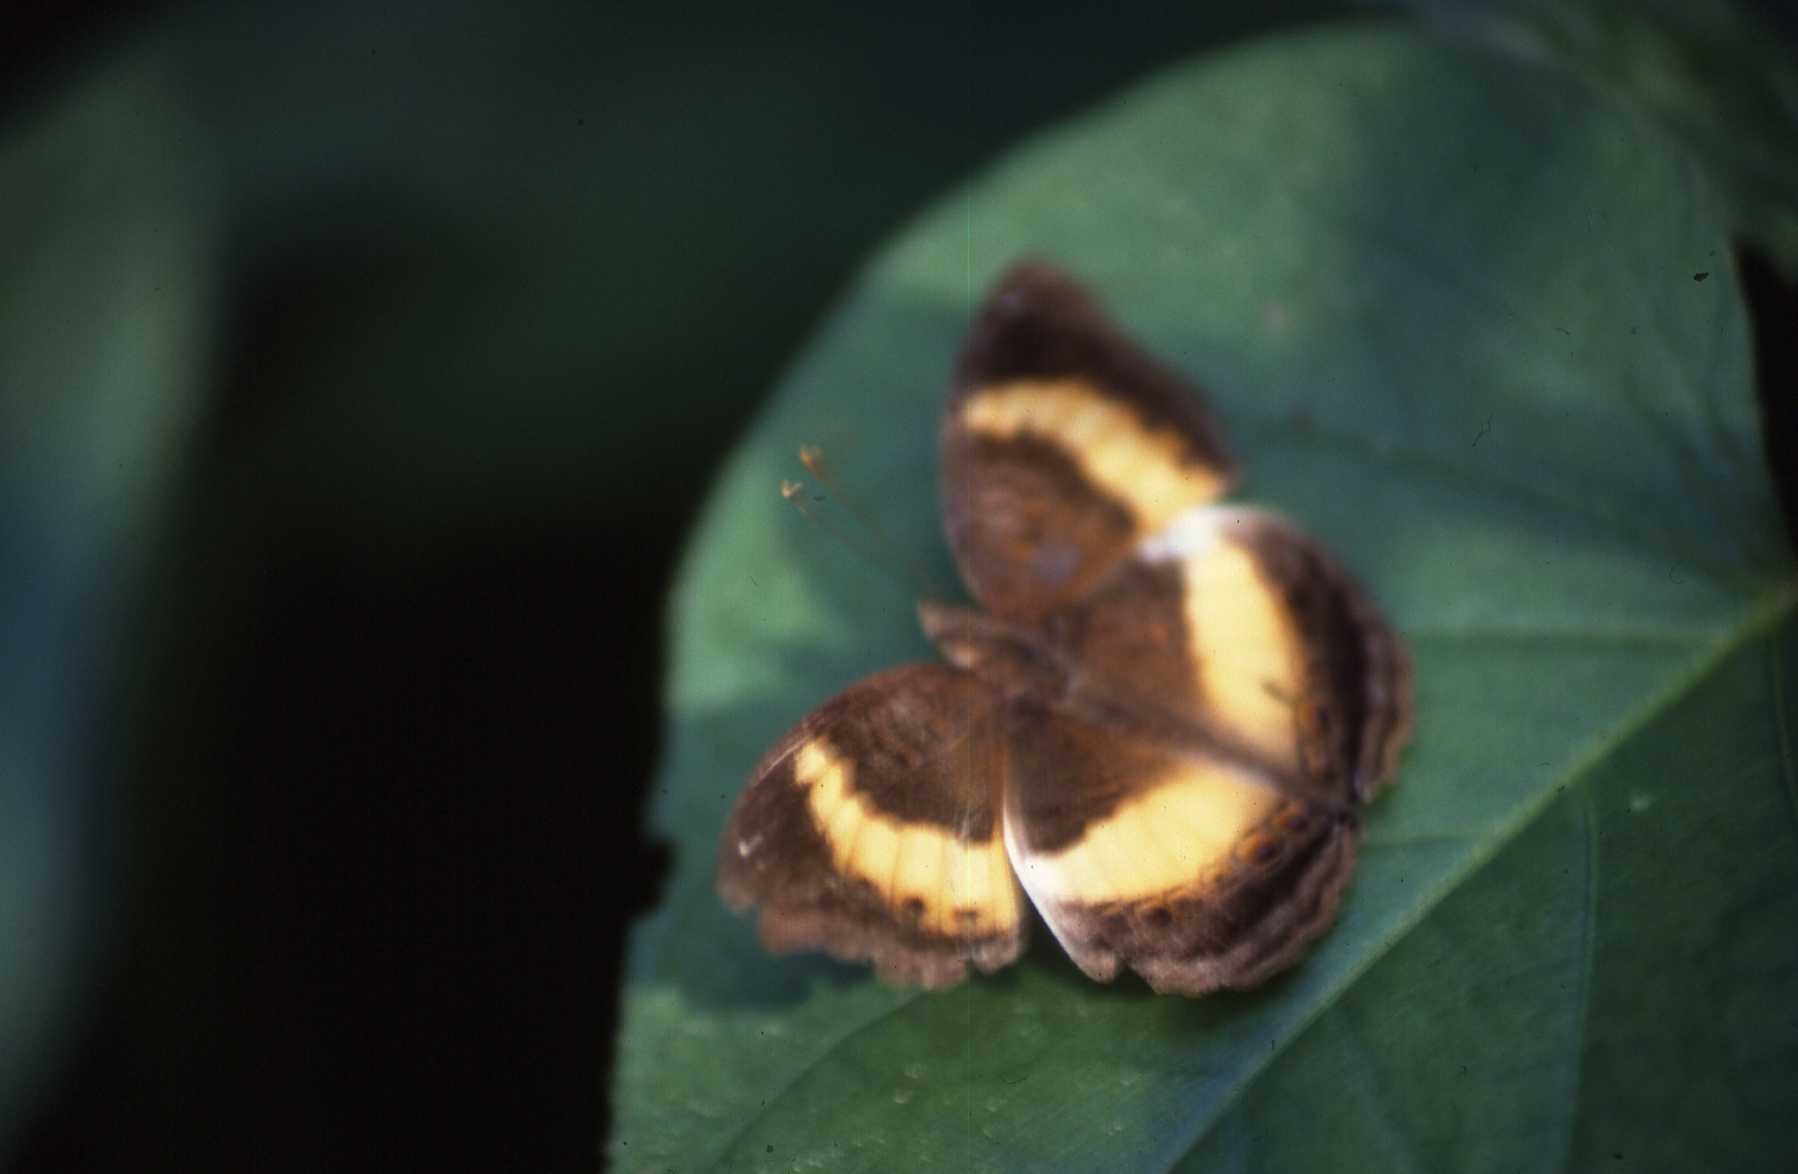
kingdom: Animalia
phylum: Arthropoda
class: Insecta
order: Lepidoptera
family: Nymphalidae
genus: Junonia
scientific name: Junonia terea
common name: Soldier pansy
